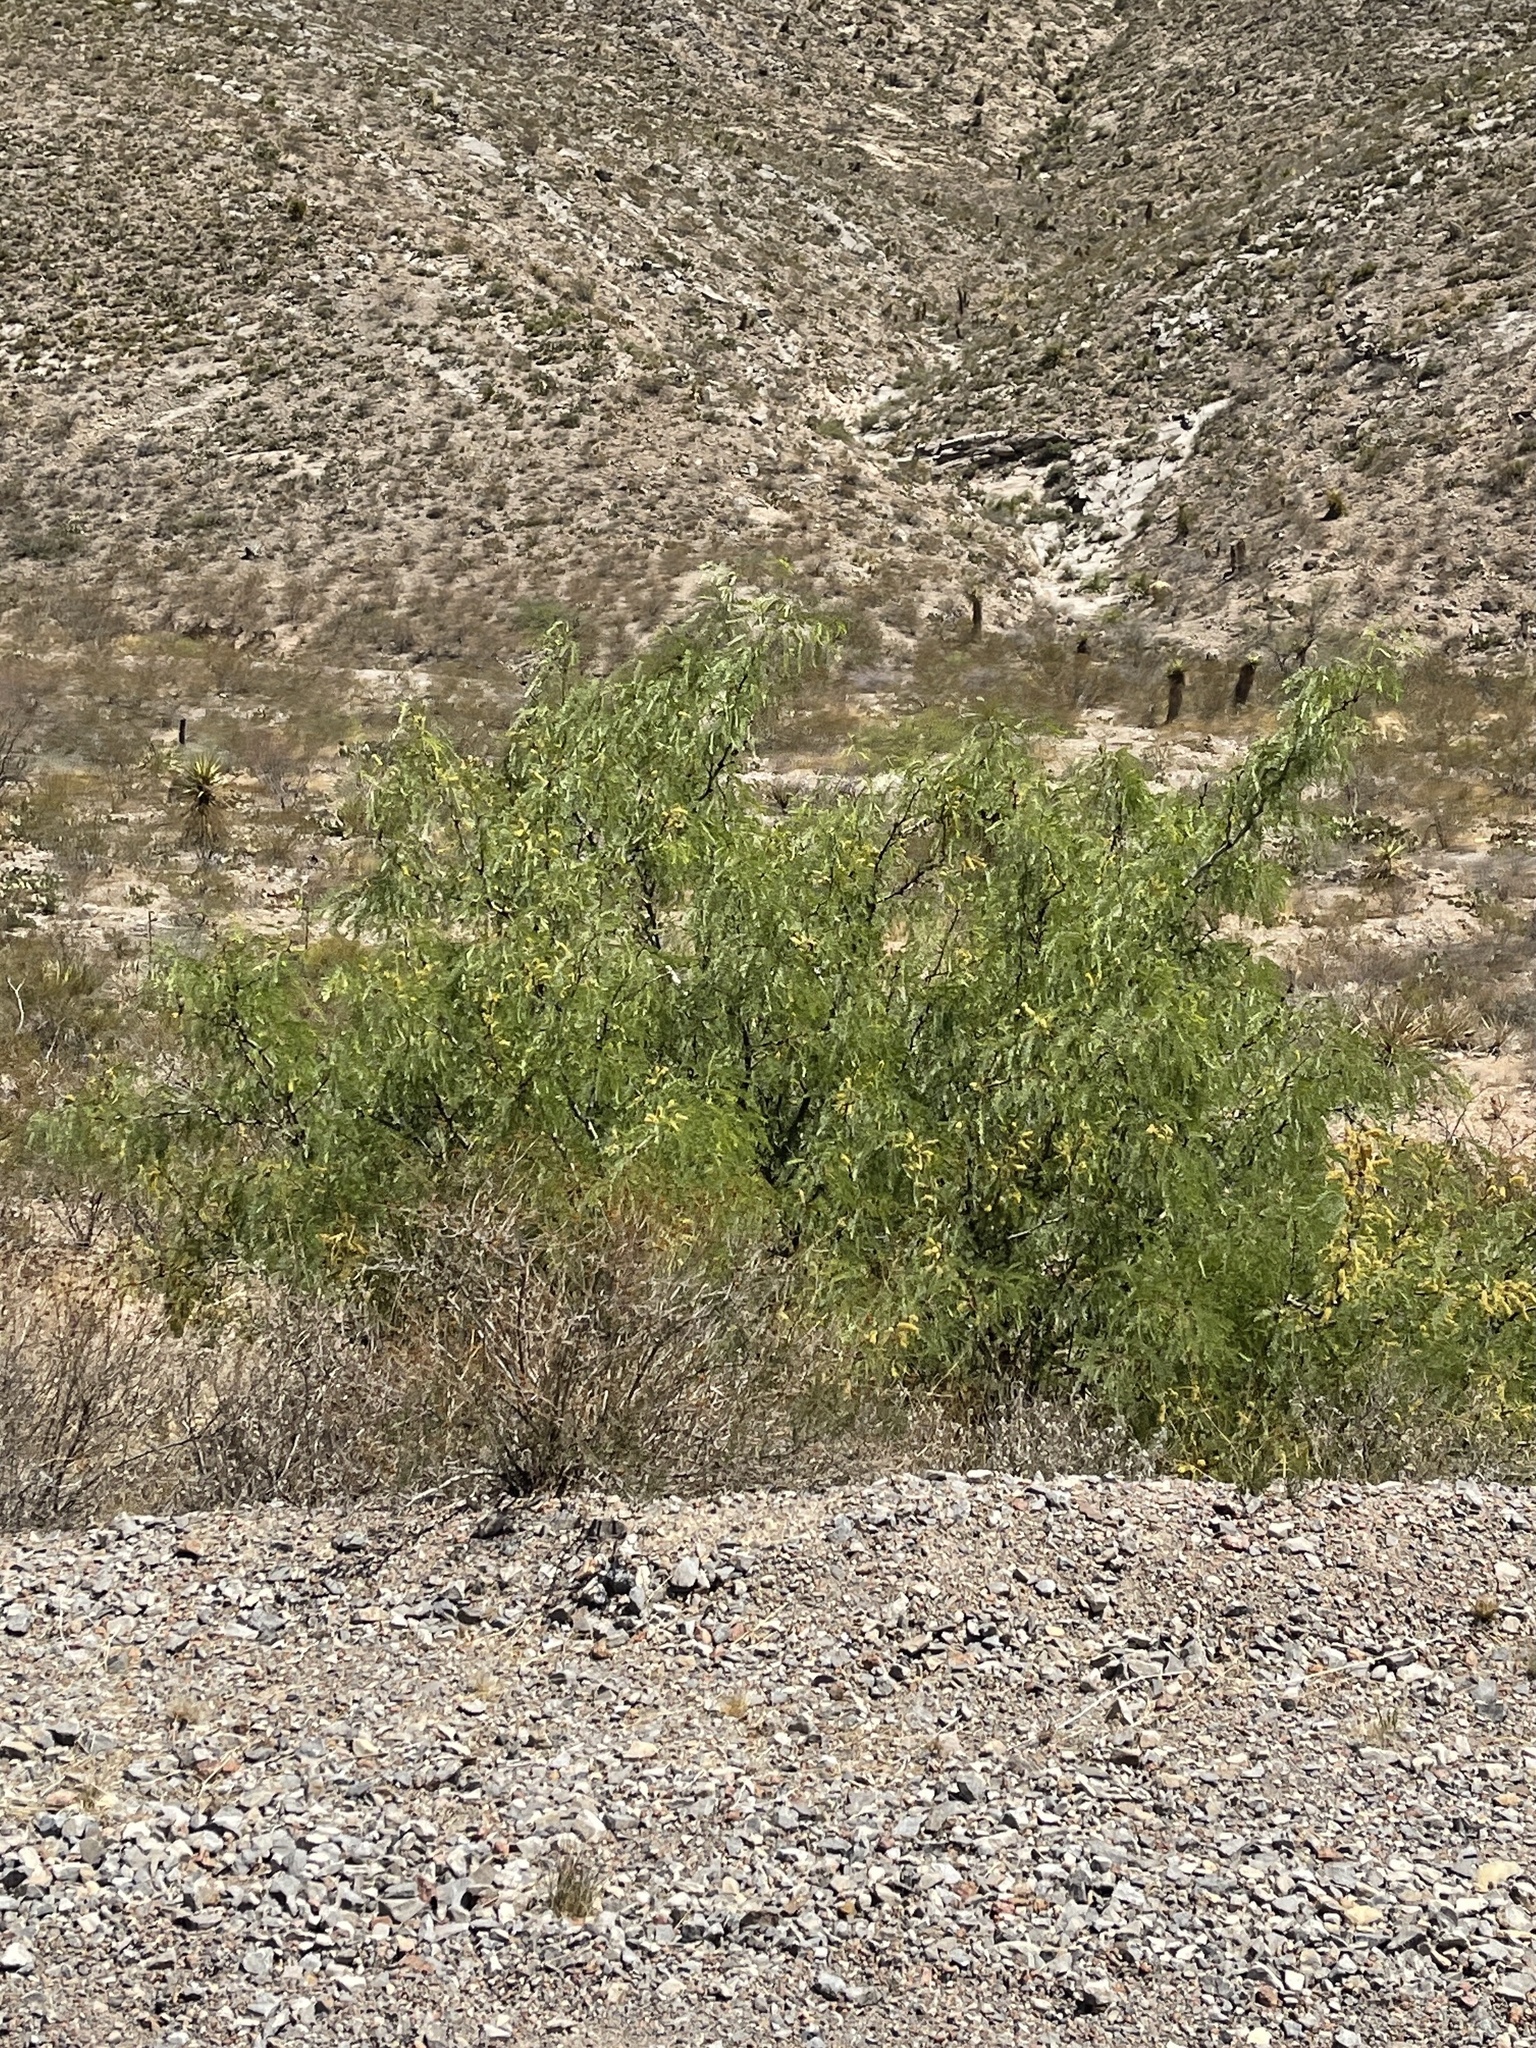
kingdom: Plantae
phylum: Tracheophyta
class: Magnoliopsida
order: Fabales
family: Fabaceae
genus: Prosopis
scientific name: Prosopis glandulosa
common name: Honey mesquite
